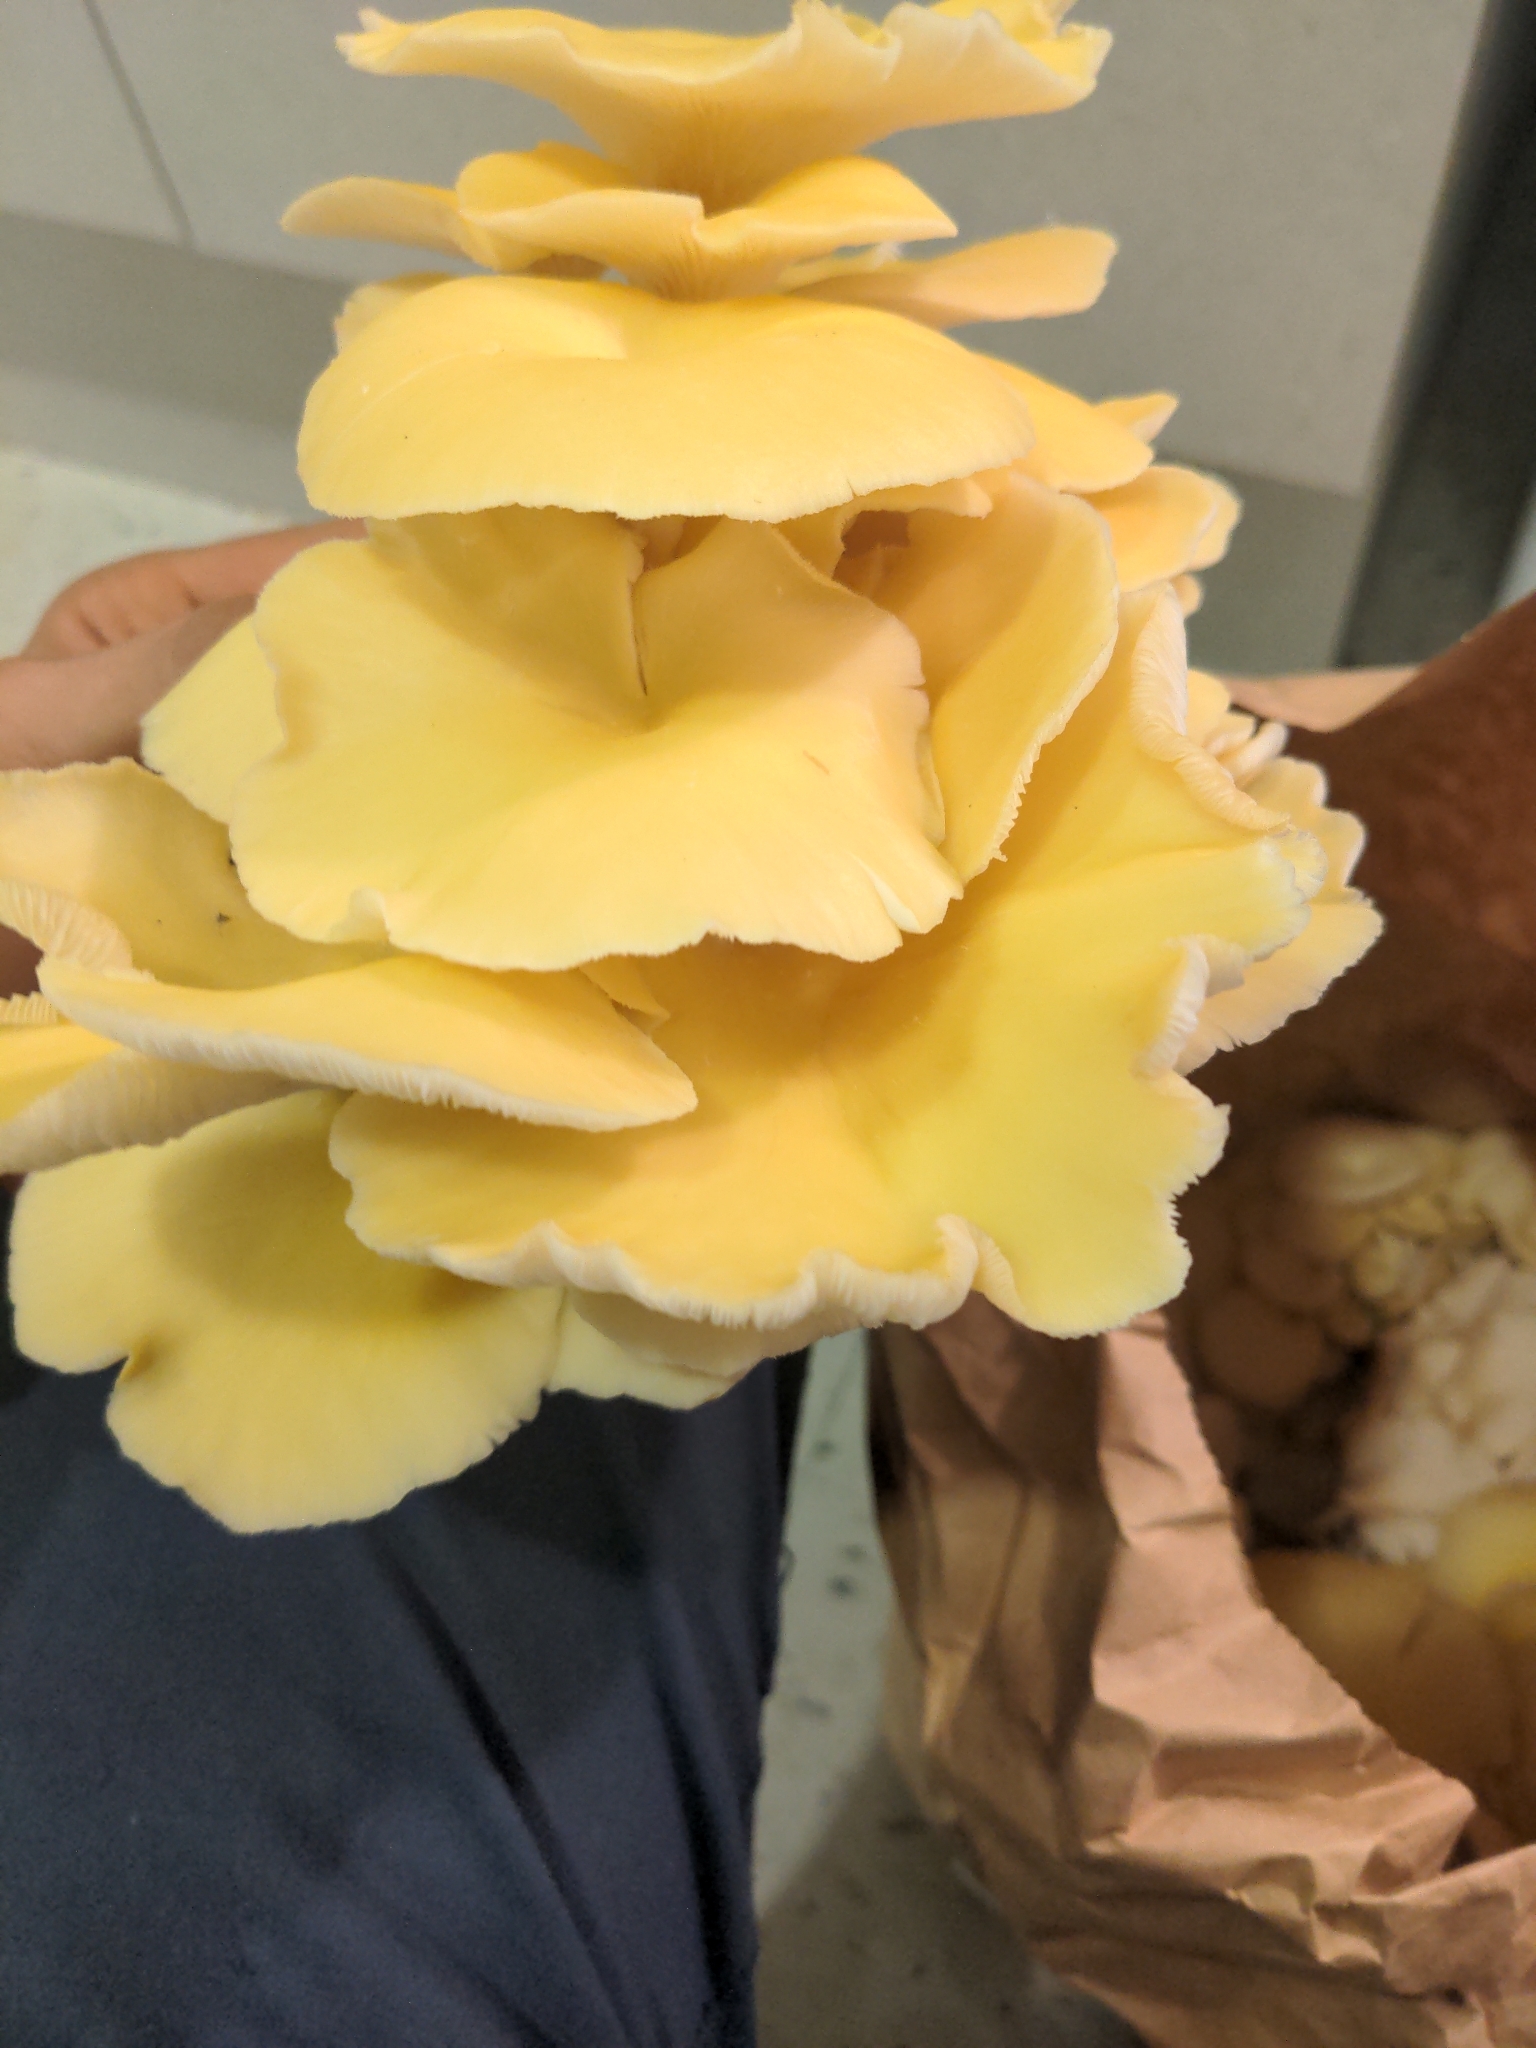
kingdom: Fungi
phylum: Basidiomycota
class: Agaricomycetes
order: Agaricales
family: Pleurotaceae
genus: Pleurotus
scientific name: Pleurotus citrinopileatus
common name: Golden oyster mushroom
